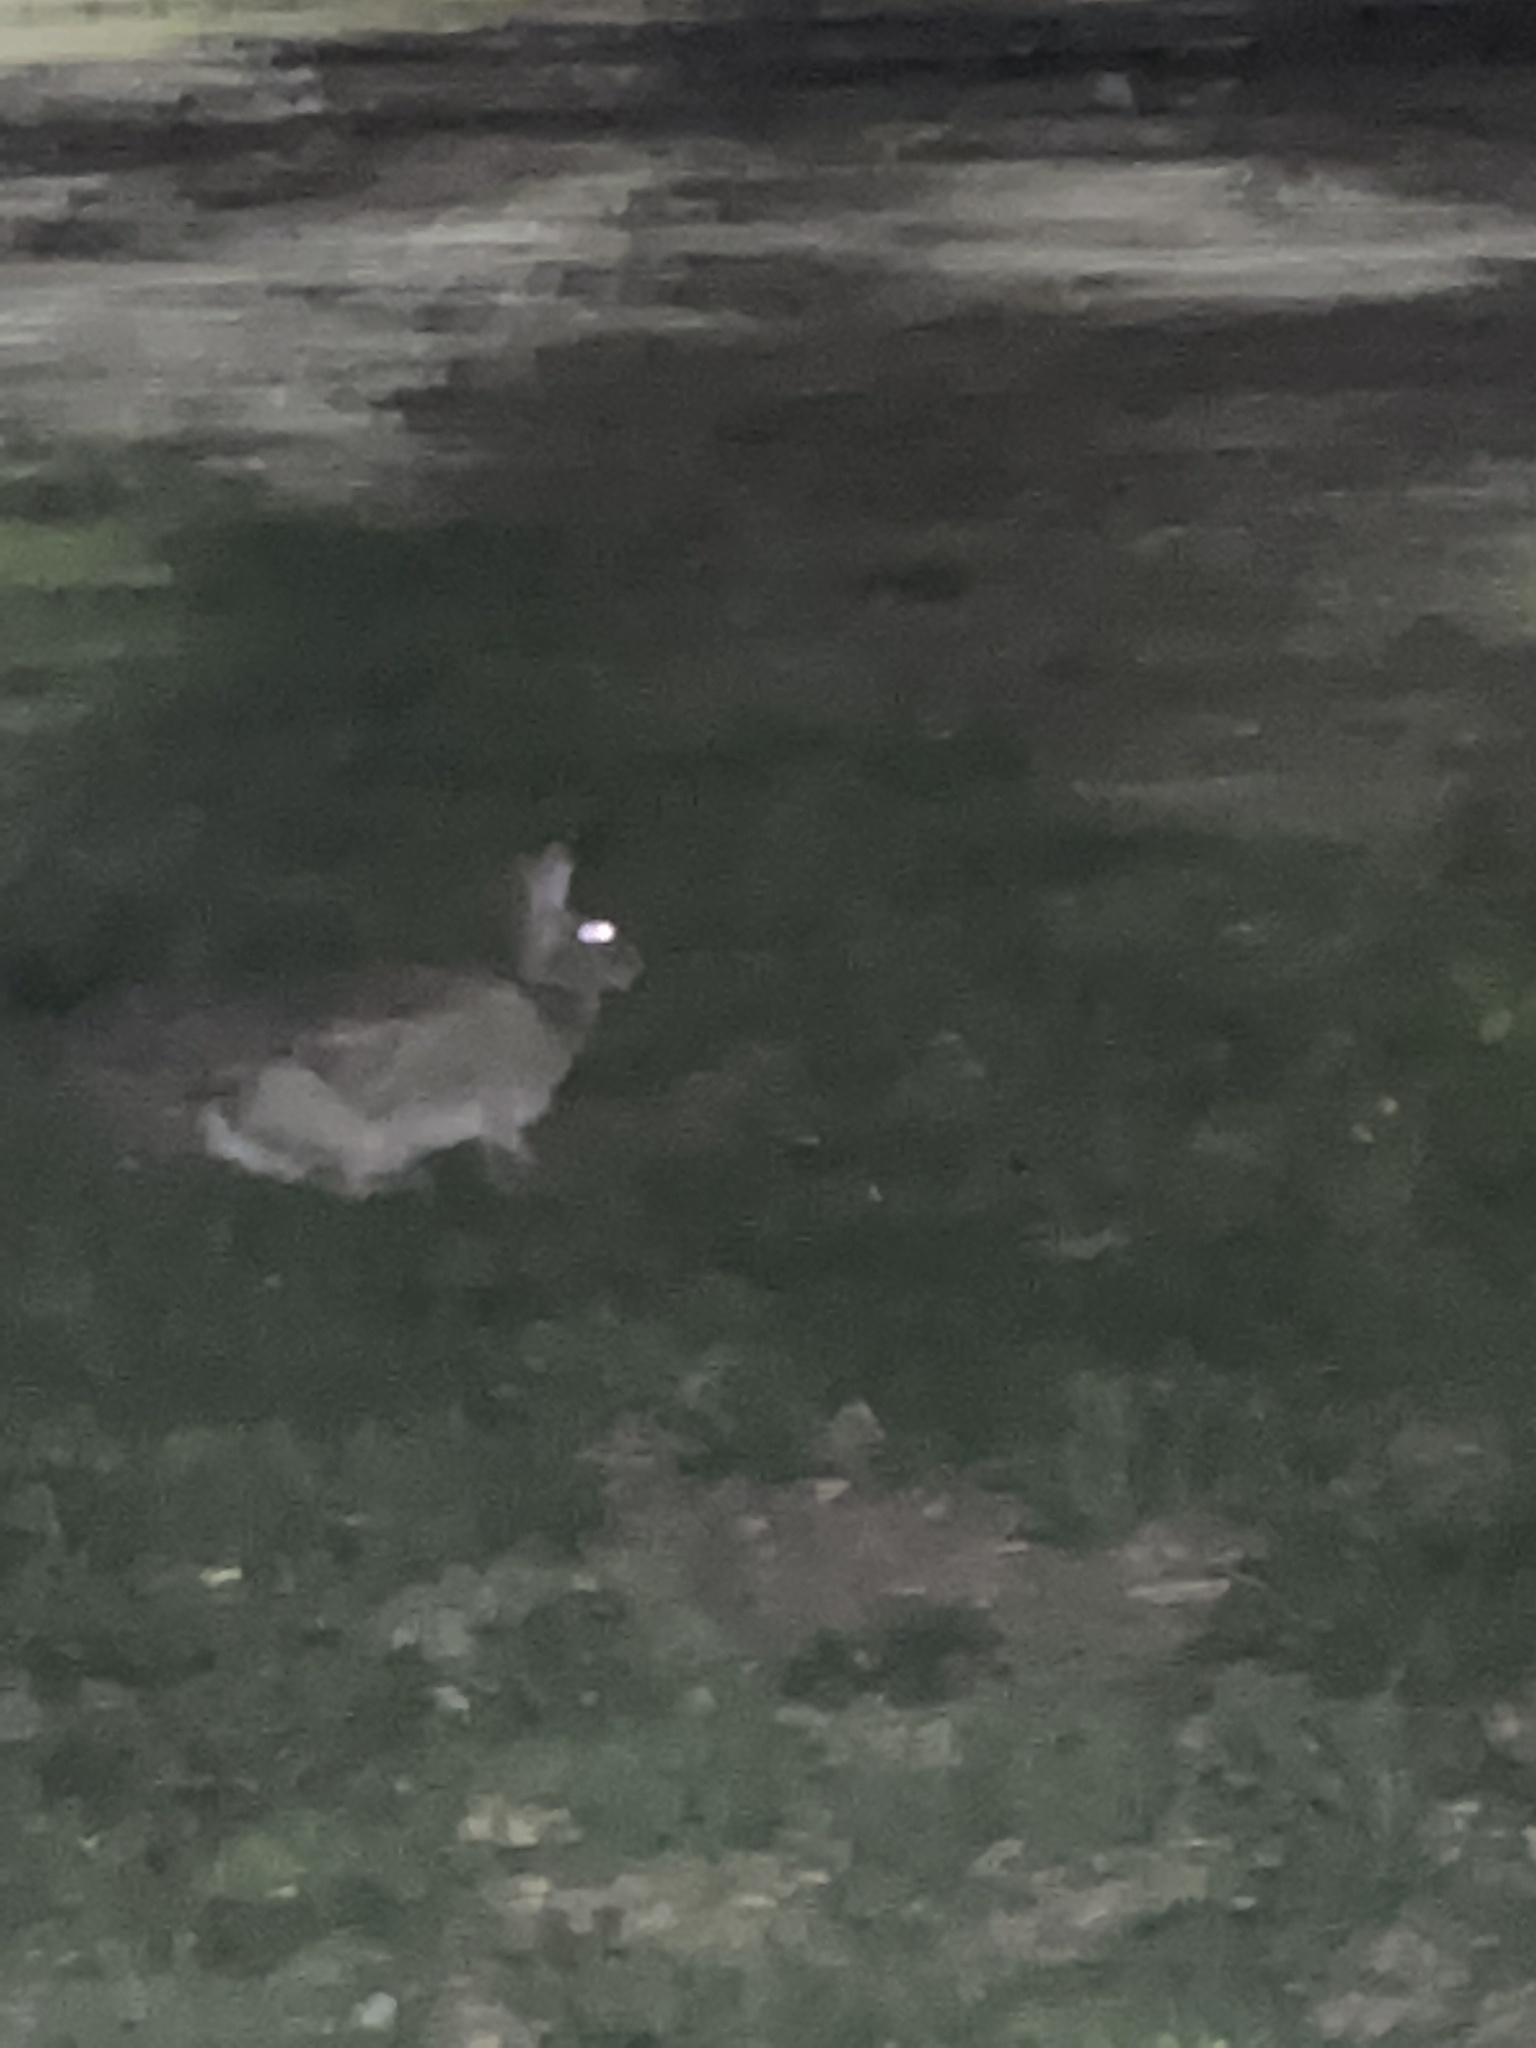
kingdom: Animalia
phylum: Chordata
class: Mammalia
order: Lagomorpha
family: Leporidae
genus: Sylvilagus
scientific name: Sylvilagus floridanus
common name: Eastern cottontail
